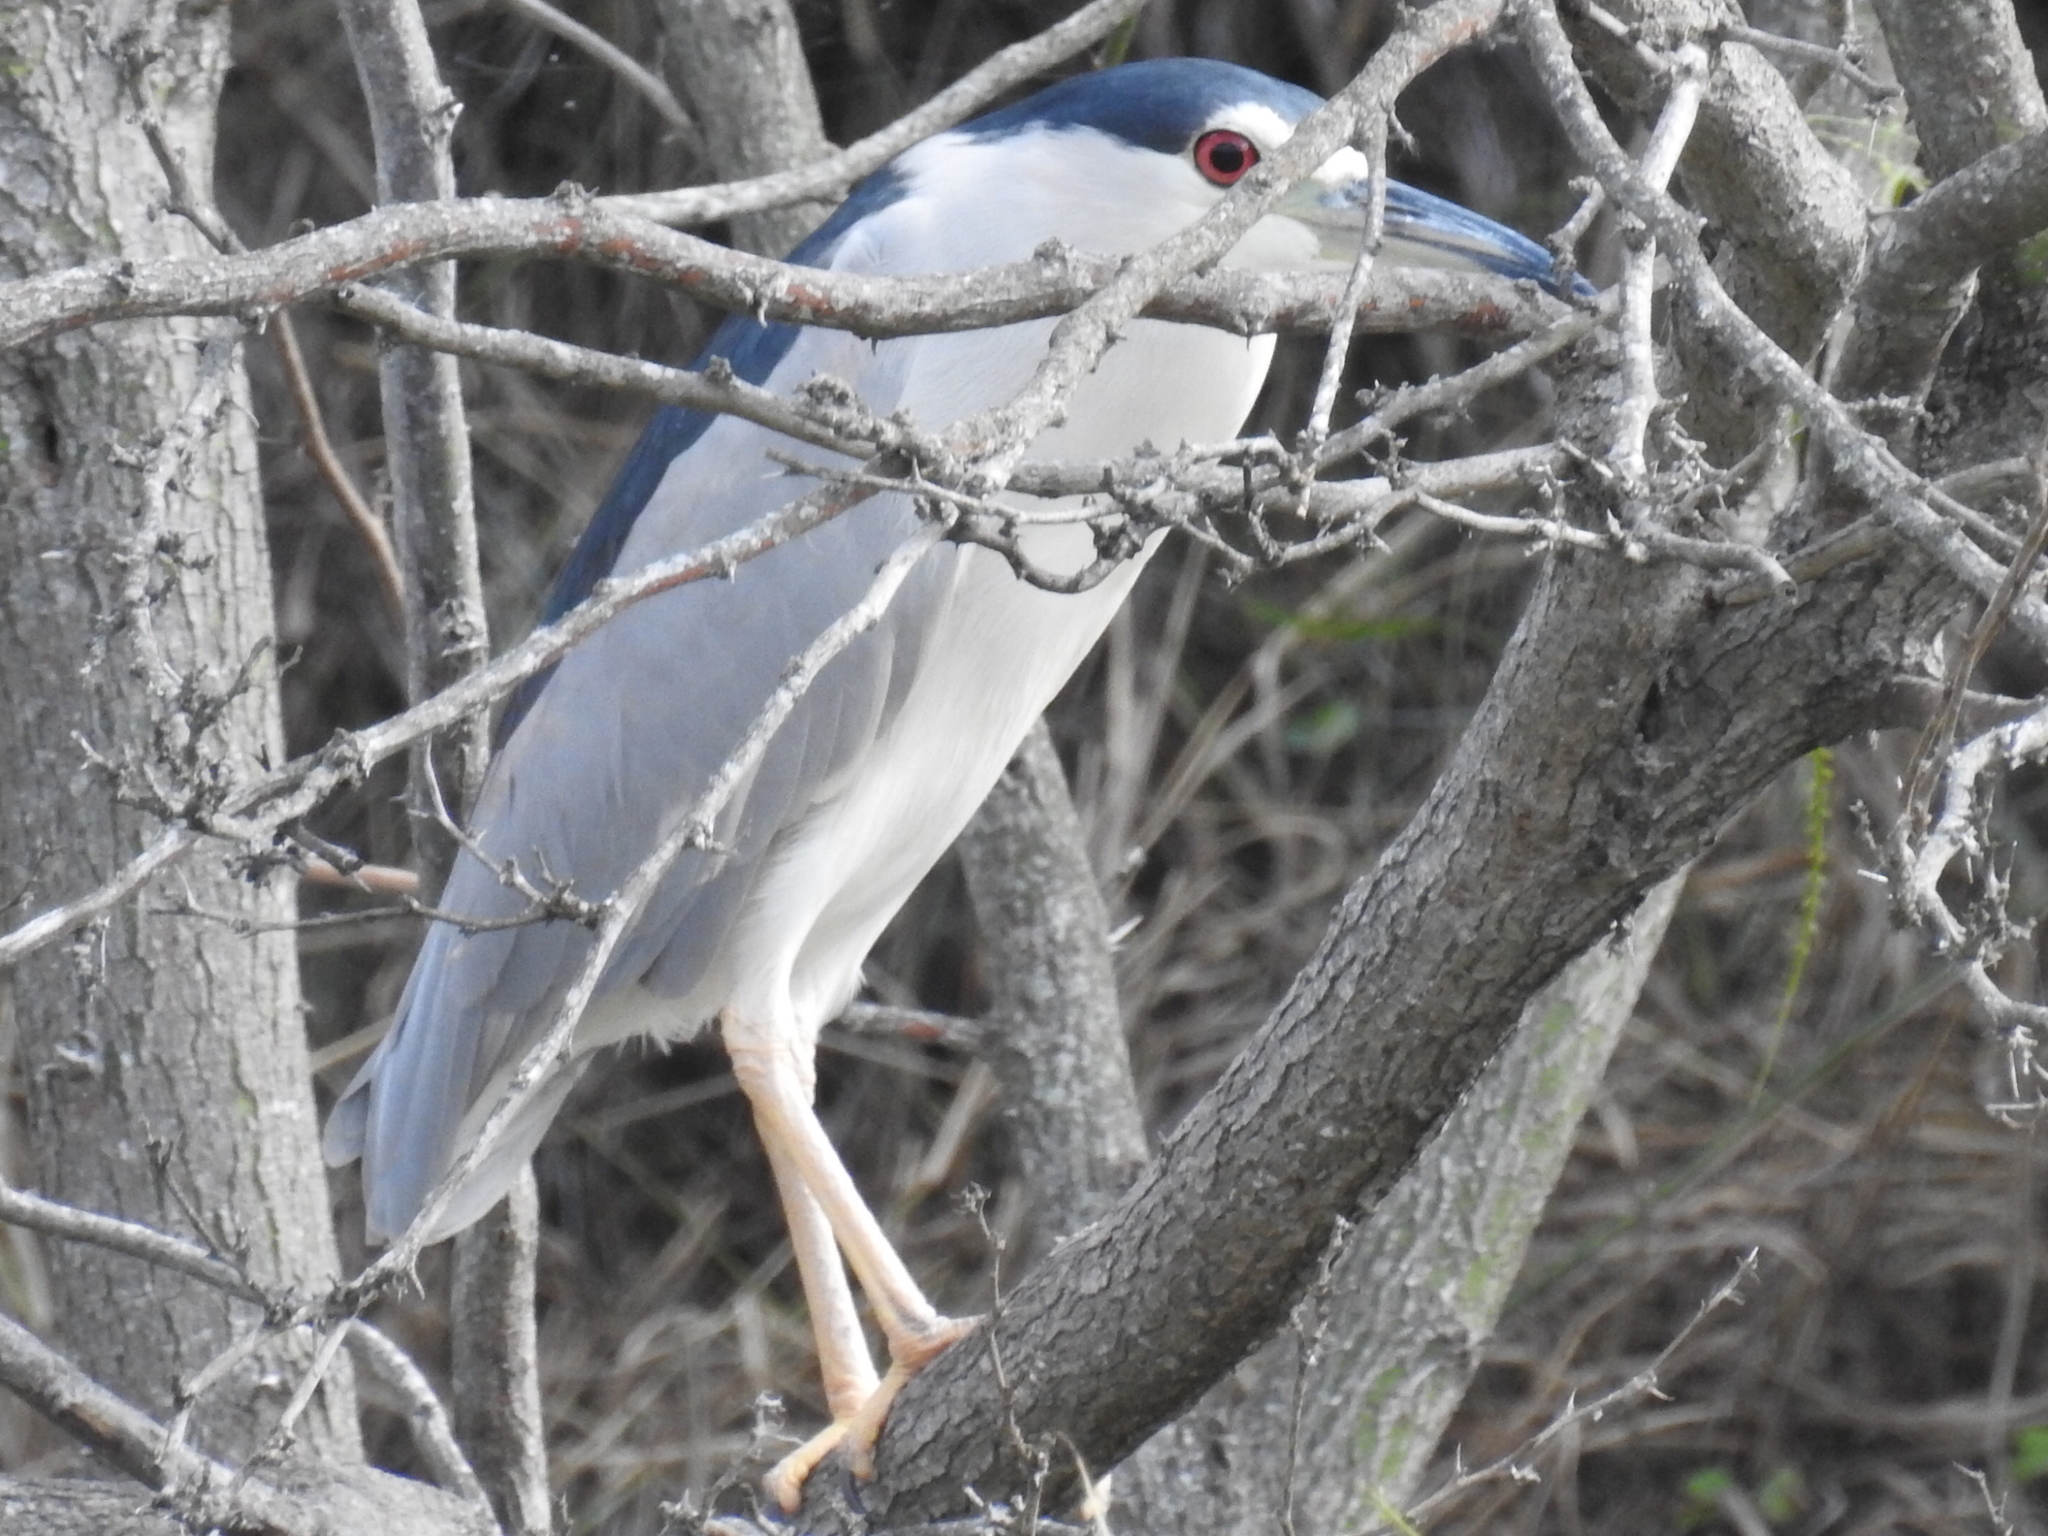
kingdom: Animalia
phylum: Chordata
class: Aves
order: Pelecaniformes
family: Ardeidae
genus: Nycticorax
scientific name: Nycticorax nycticorax
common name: Black-crowned night heron
